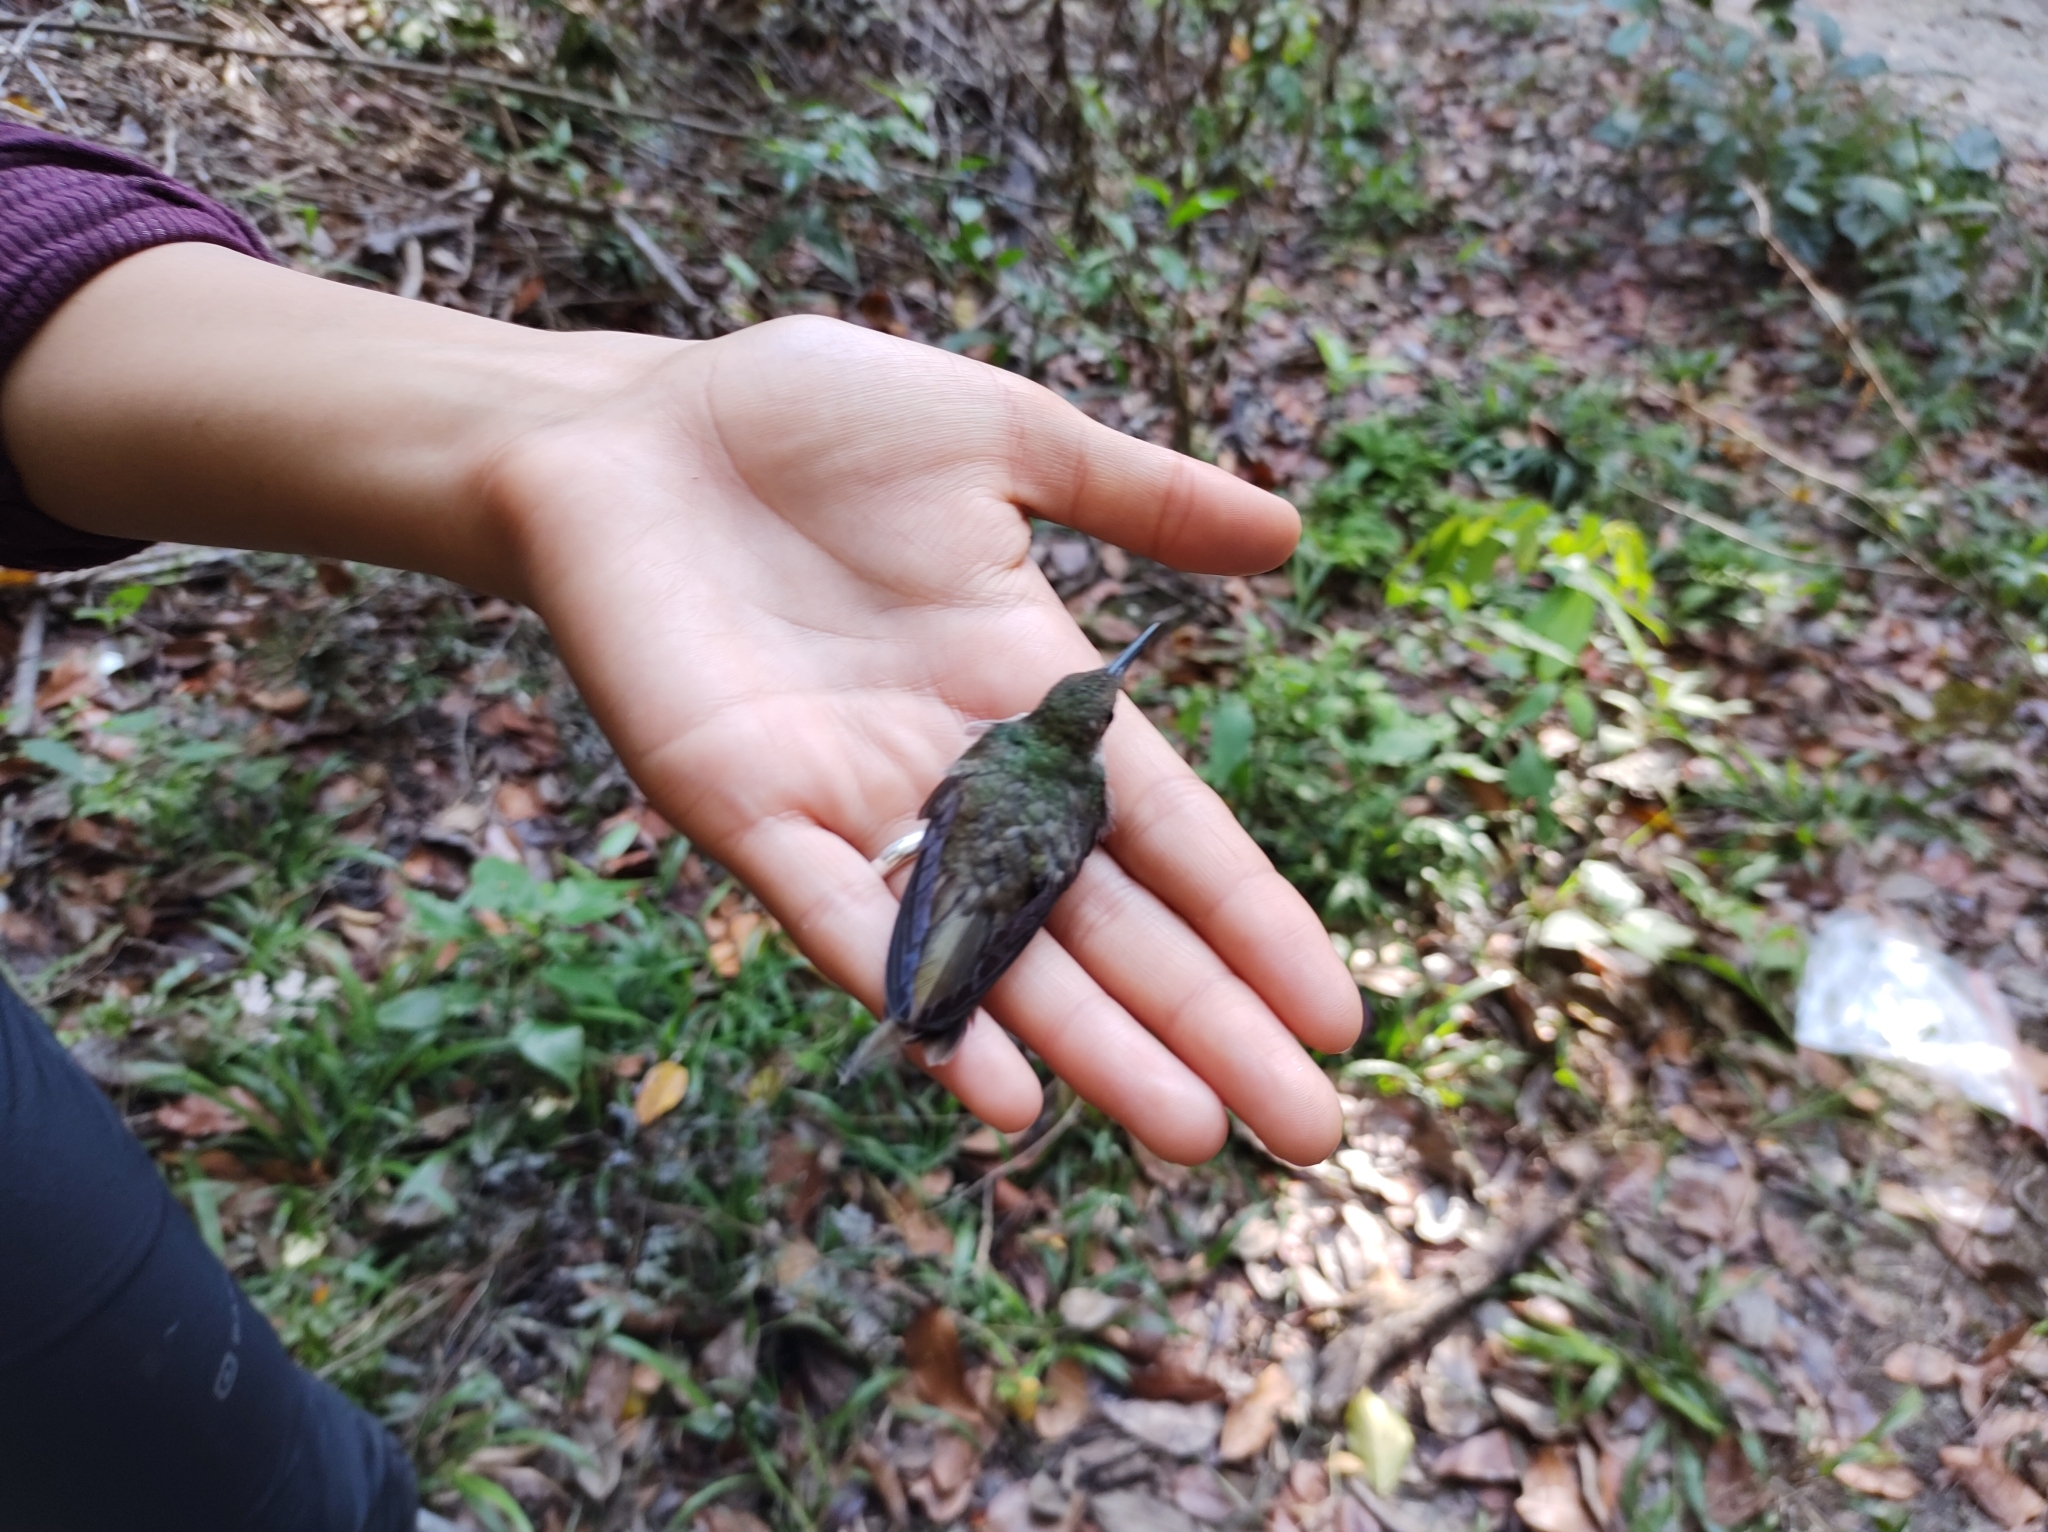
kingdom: Animalia
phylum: Chordata
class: Aves
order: Apodiformes
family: Trochilidae
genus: Chlorestes
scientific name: Chlorestes candida
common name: White-bellied emerald
